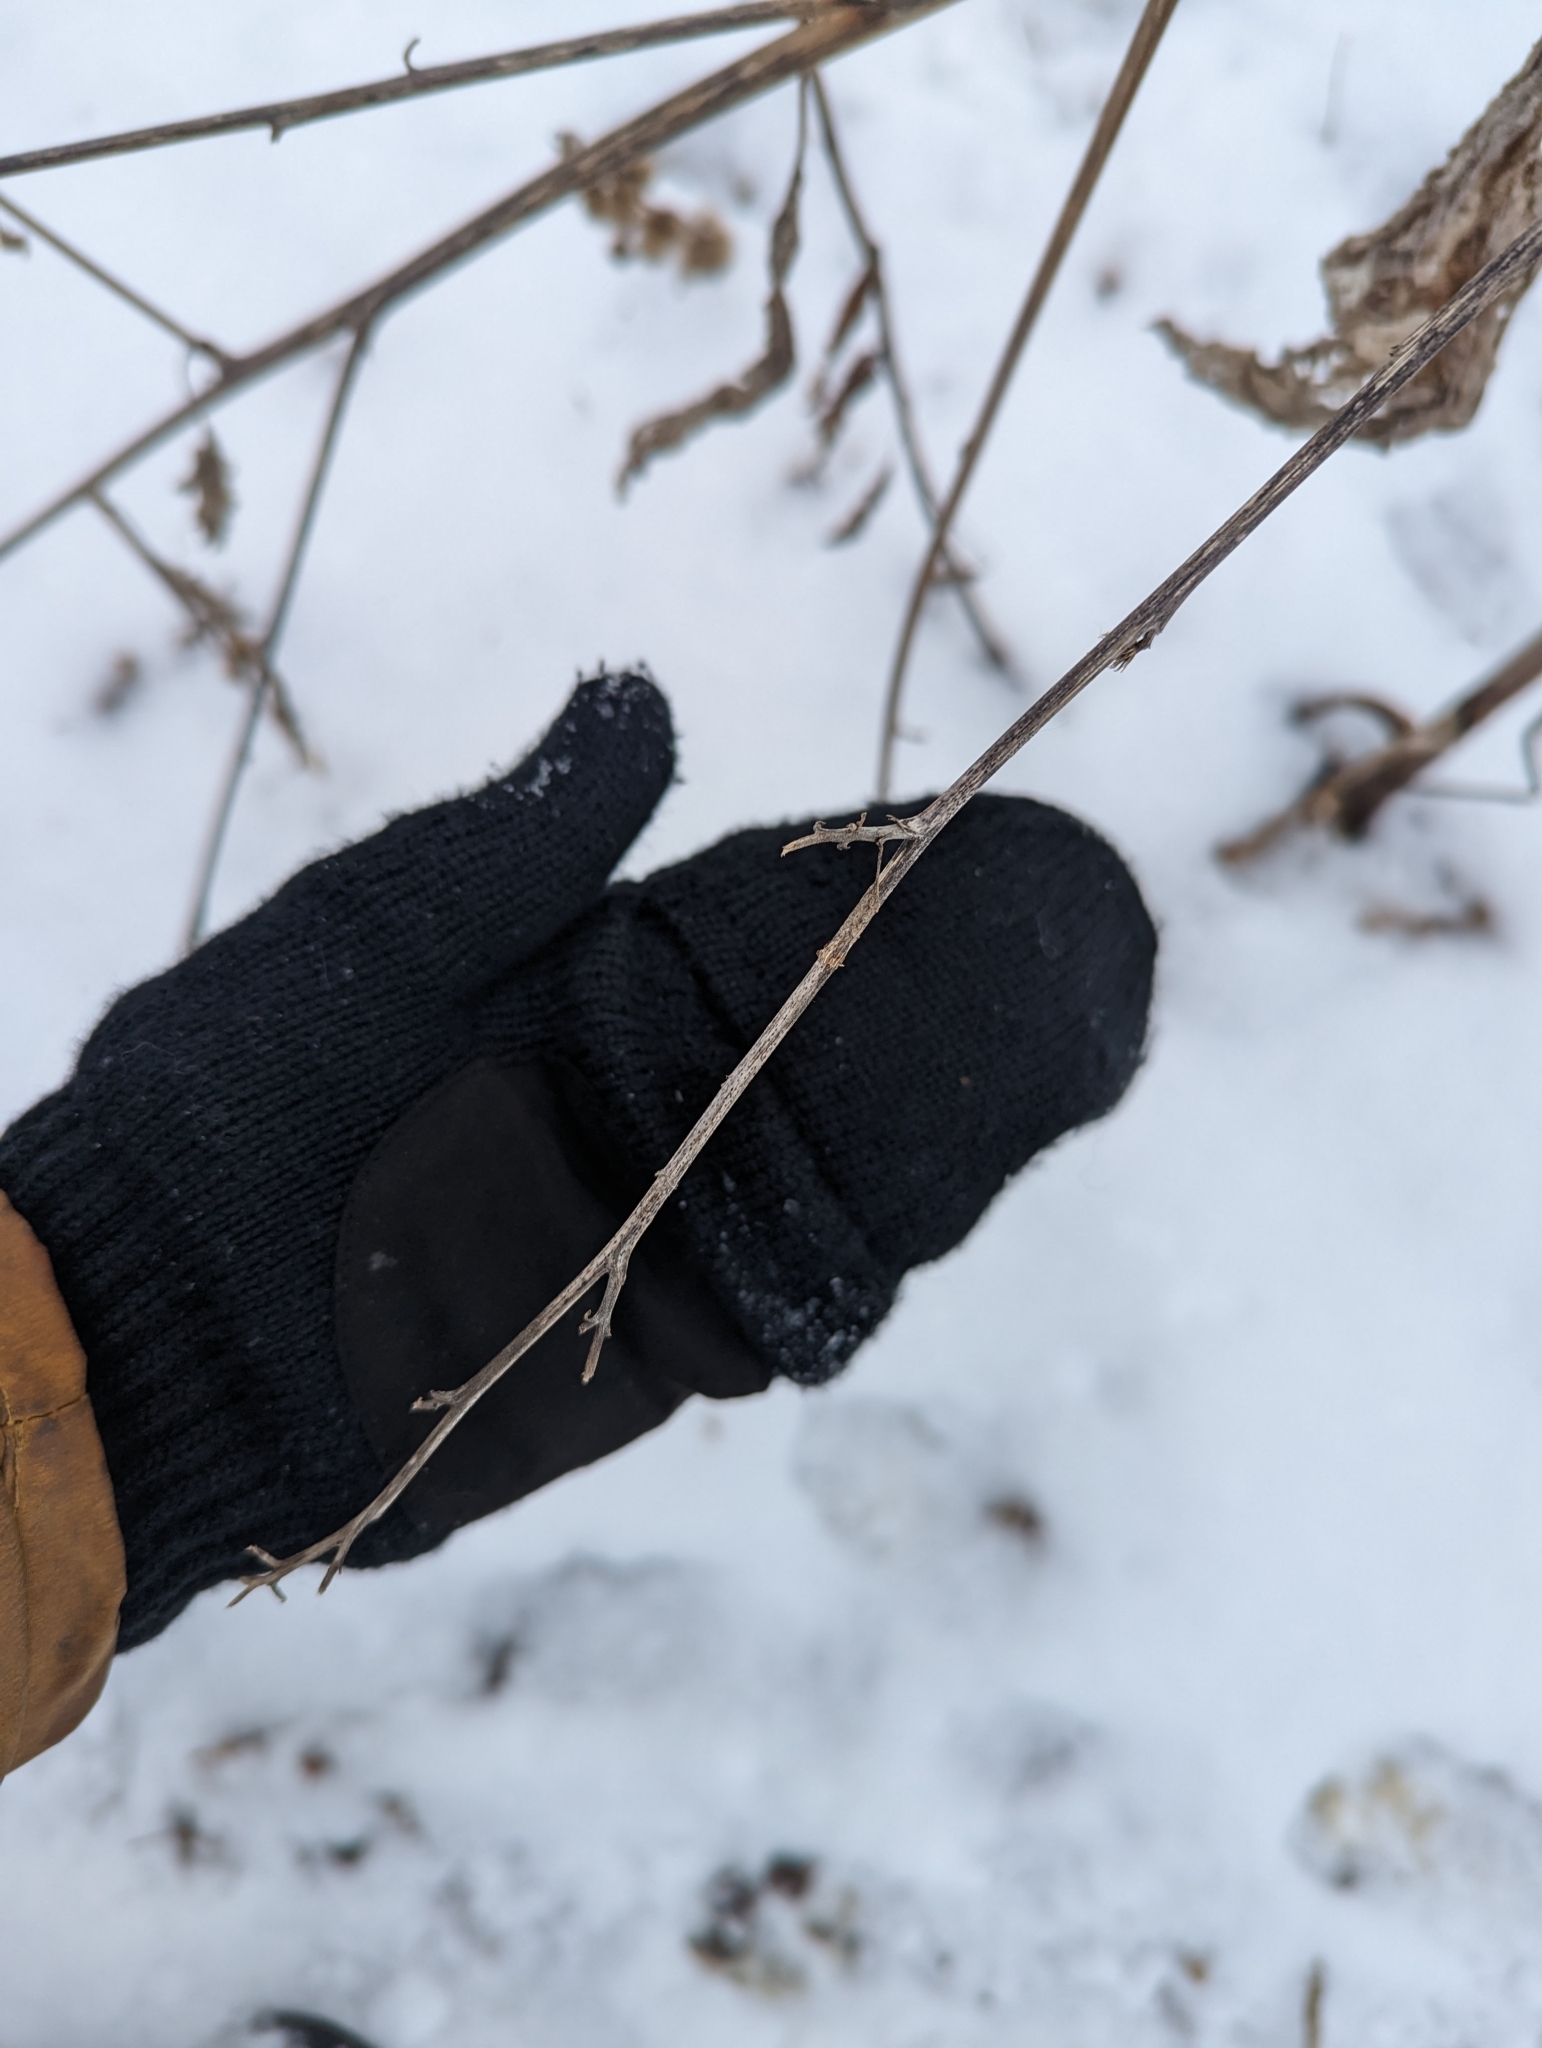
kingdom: Plantae
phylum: Tracheophyta
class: Magnoliopsida
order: Asterales
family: Asteraceae
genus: Arctium
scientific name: Arctium minus
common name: Lesser burdock
